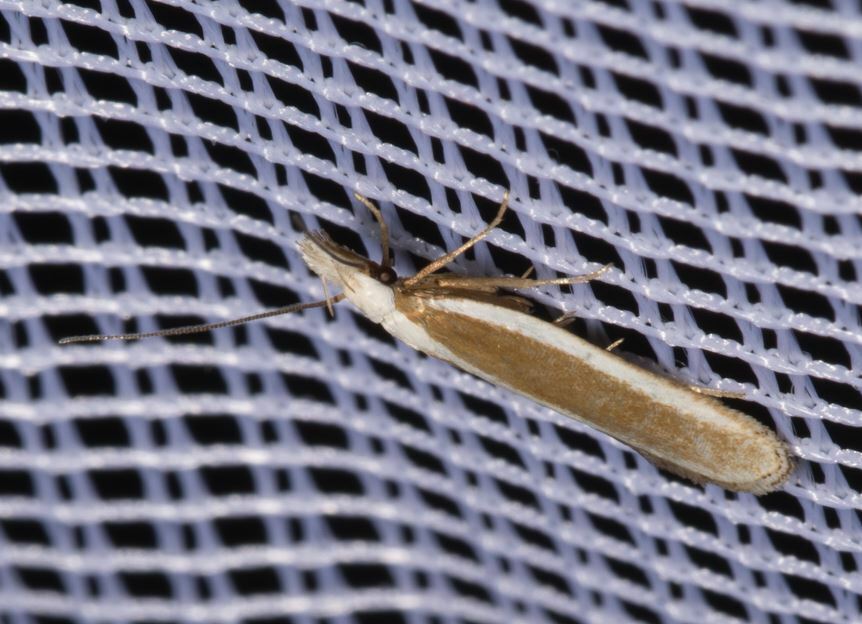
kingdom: Animalia
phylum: Arthropoda
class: Insecta
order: Lepidoptera
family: Gelechiidae
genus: Dichomeris
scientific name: Dichomeris marginella
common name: Juniper webworm
